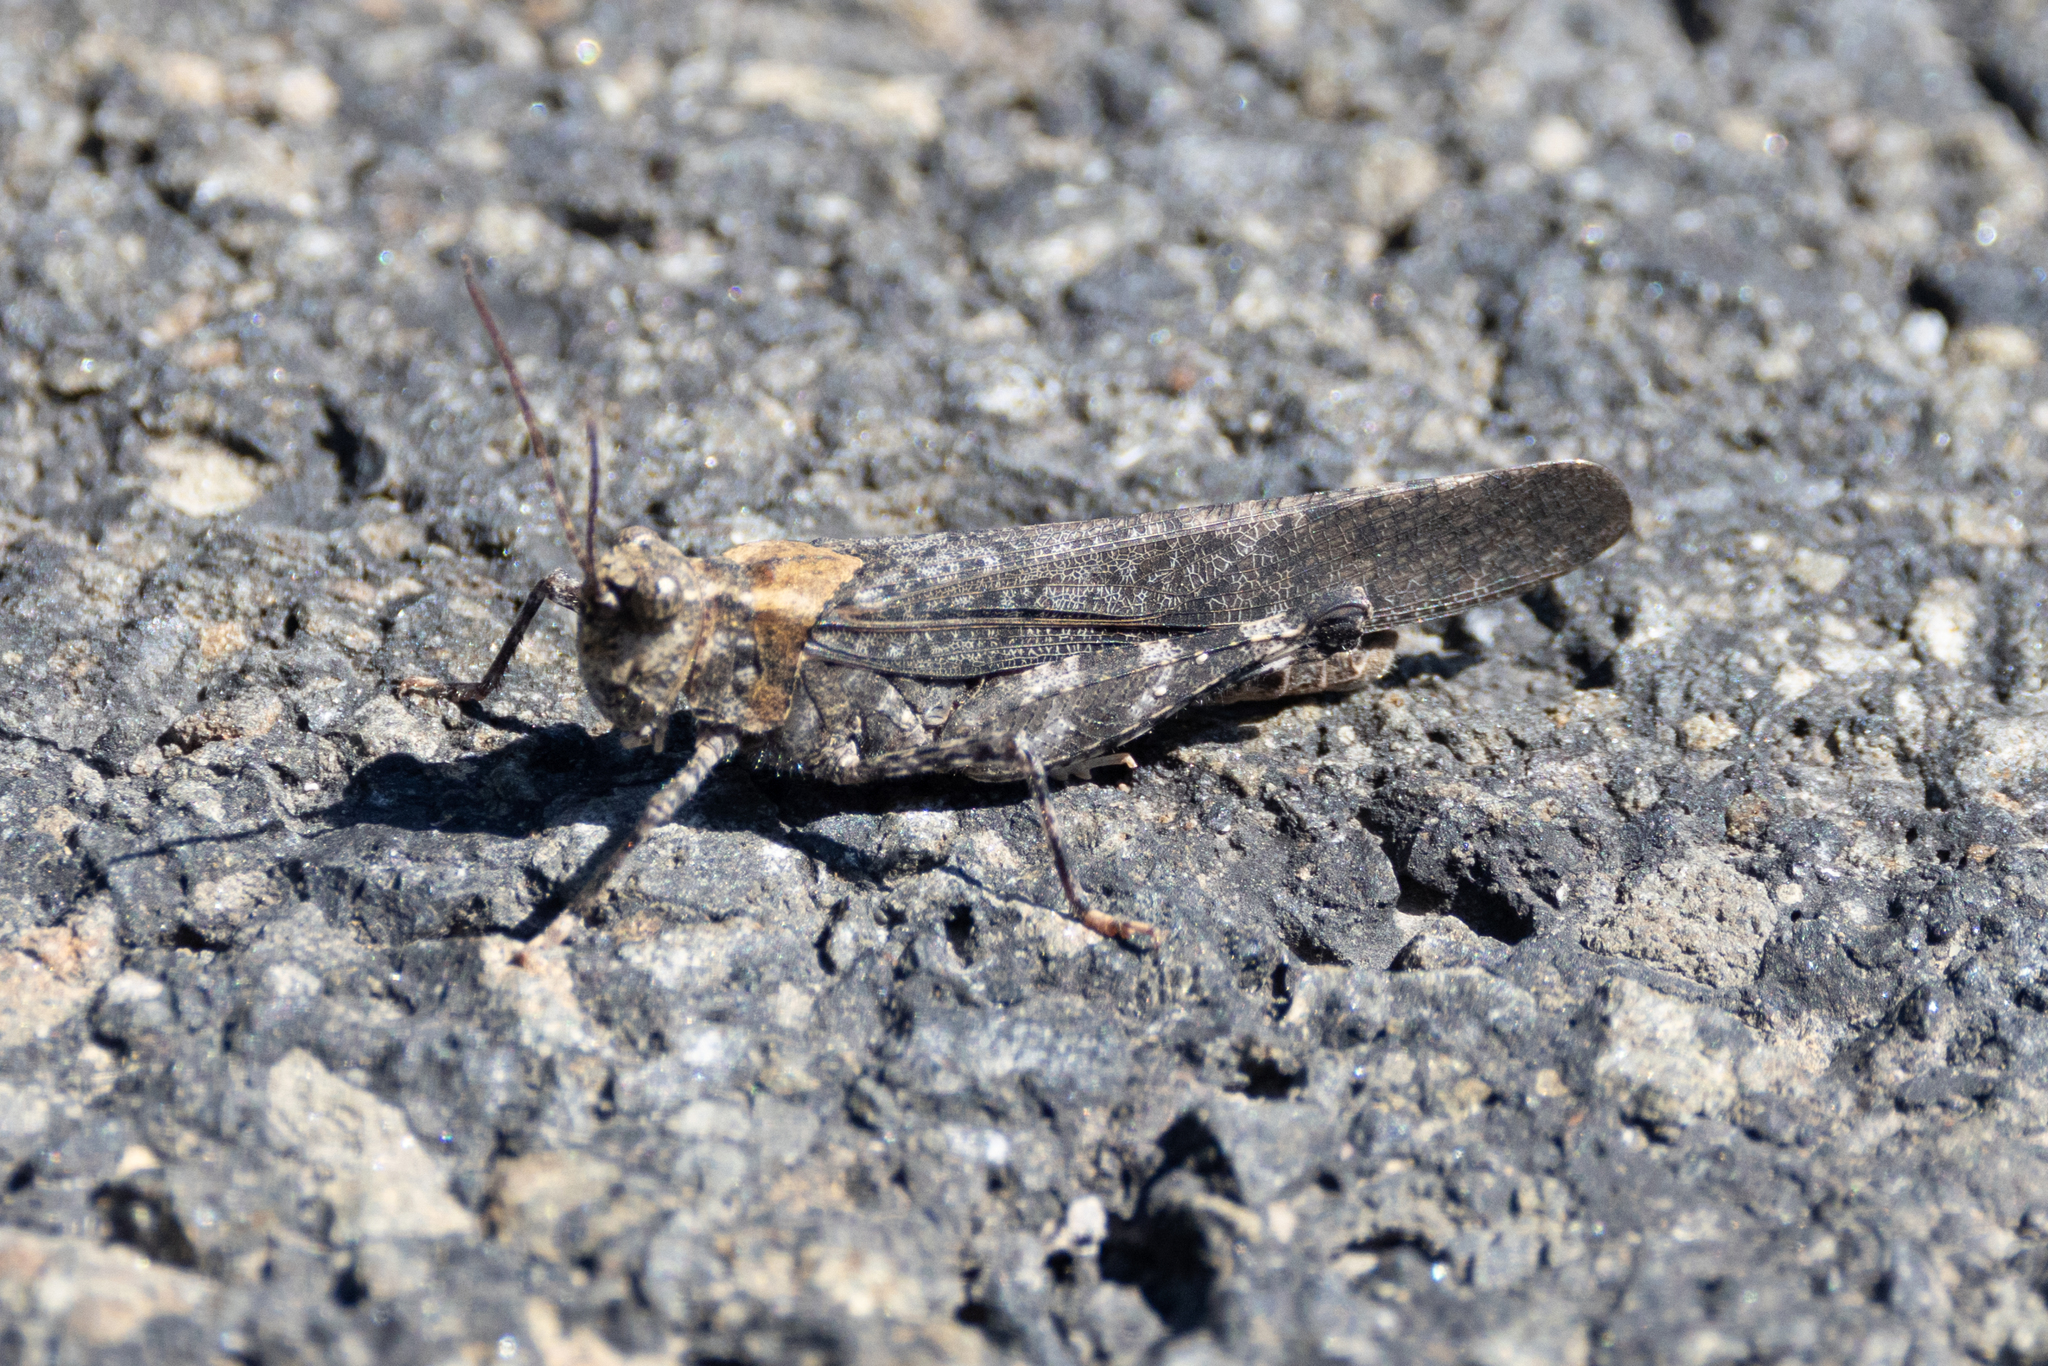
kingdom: Animalia
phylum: Arthropoda
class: Insecta
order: Orthoptera
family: Acrididae
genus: Trimerotropis
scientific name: Trimerotropis verruculata
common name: Crackling forest grasshopper
